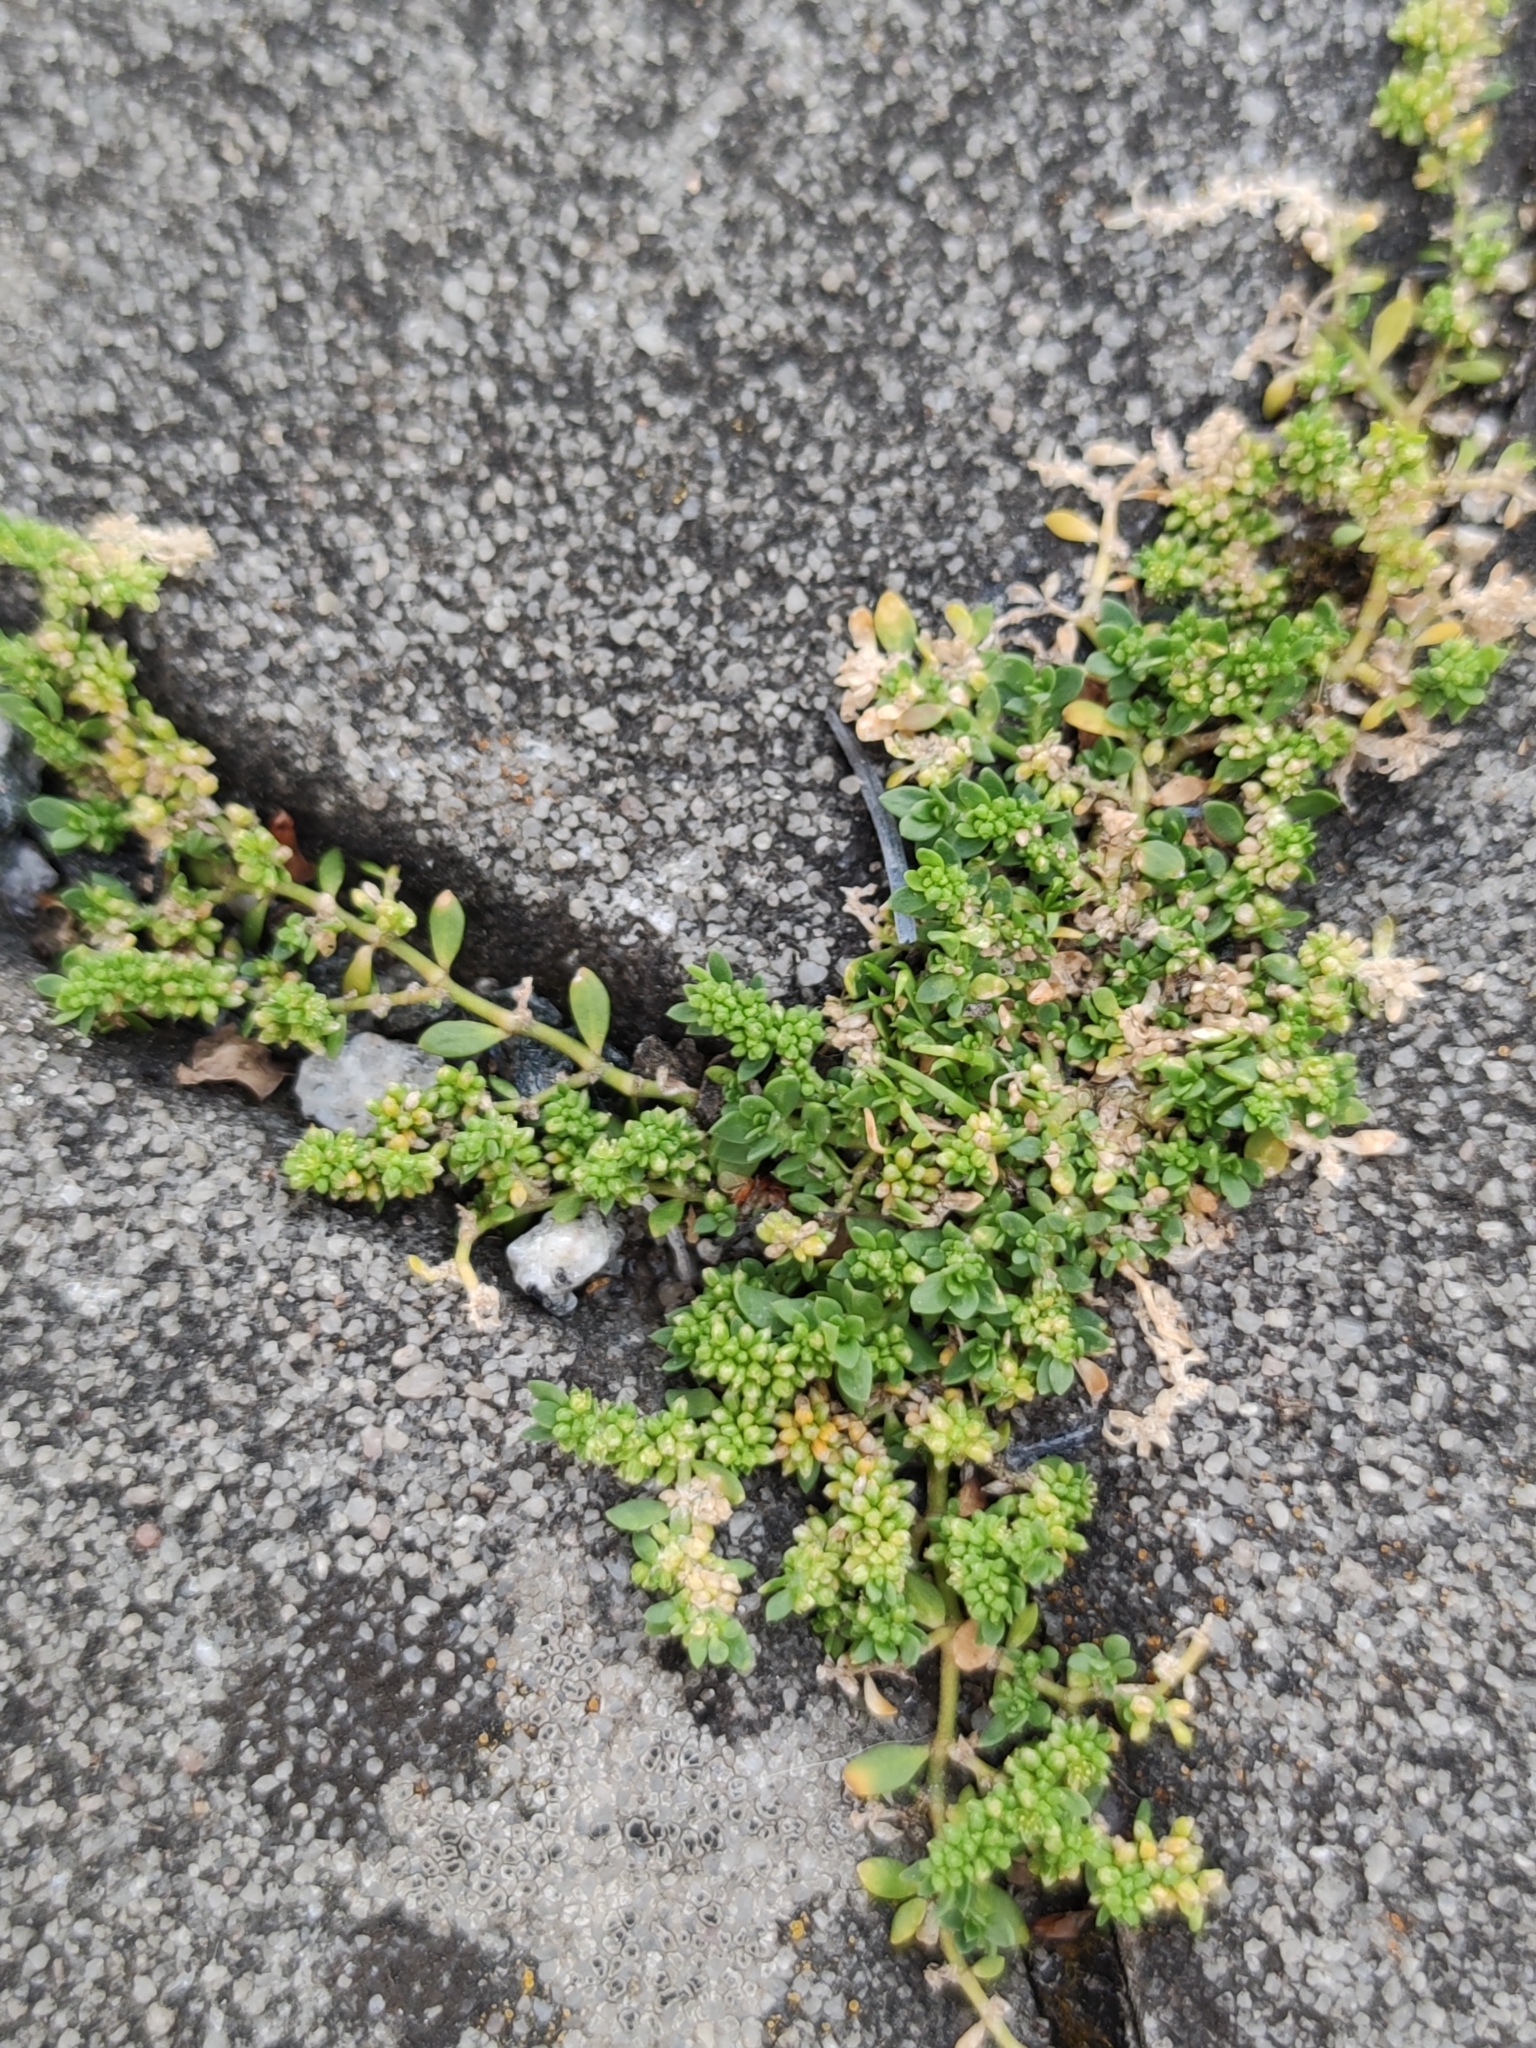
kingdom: Plantae
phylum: Tracheophyta
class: Magnoliopsida
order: Caryophyllales
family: Caryophyllaceae
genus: Herniaria
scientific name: Herniaria glabra
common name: Smooth rupturewort
